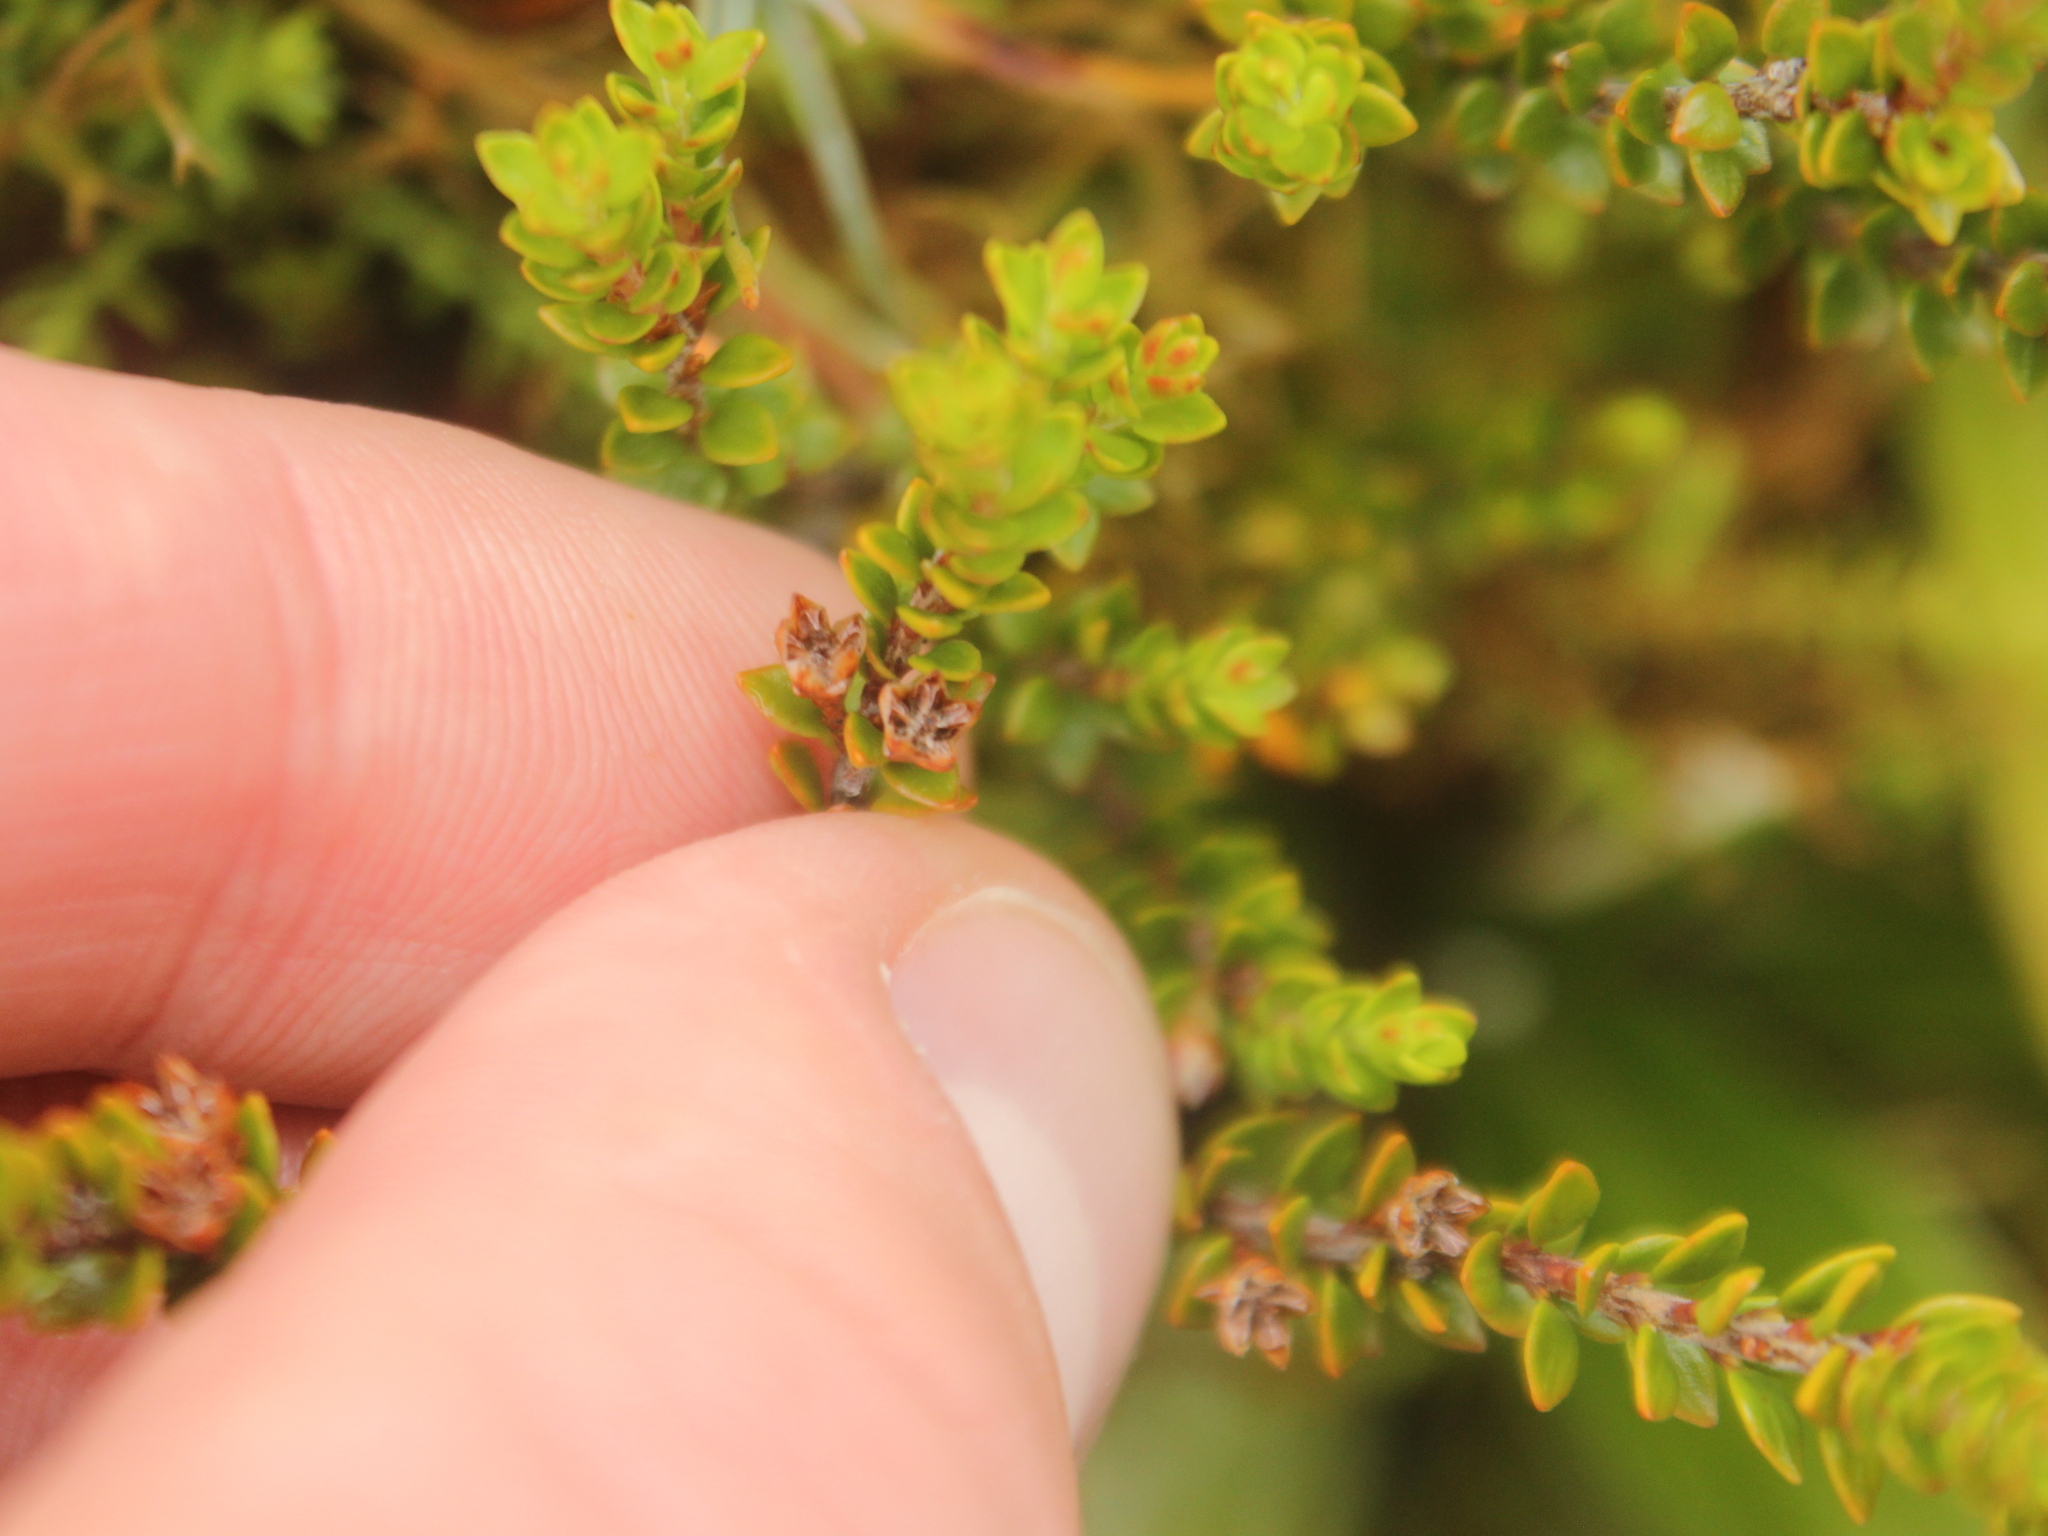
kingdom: Plantae
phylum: Tracheophyta
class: Magnoliopsida
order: Ericales
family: Ericaceae
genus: Epacris
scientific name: Epacris alpina
